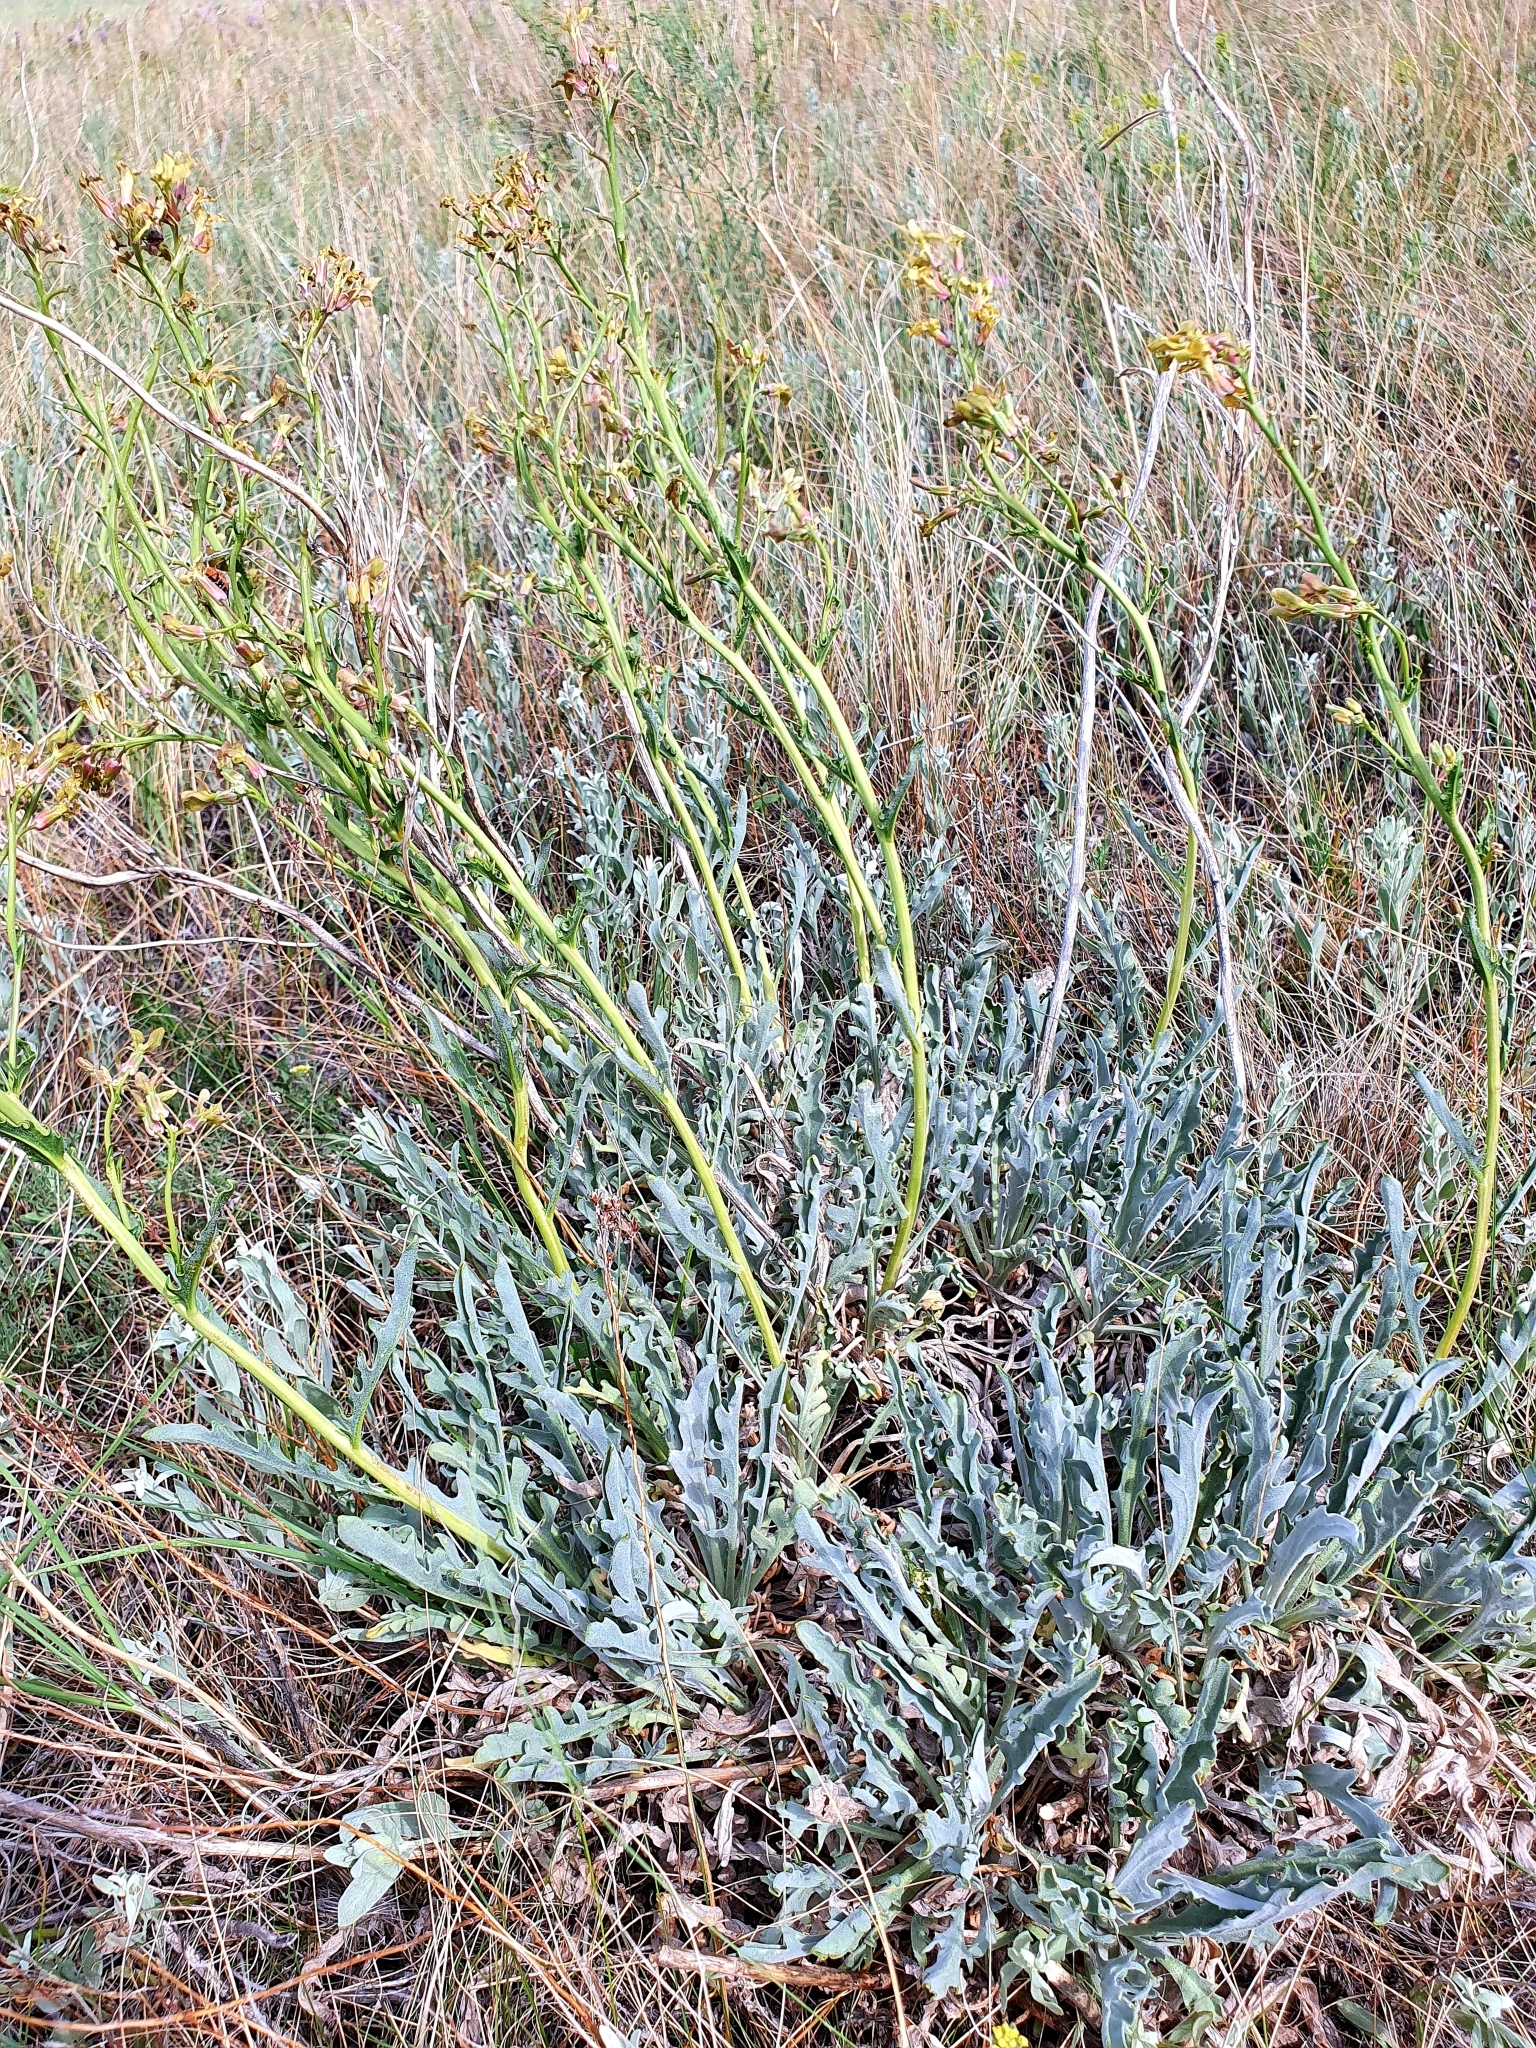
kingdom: Plantae
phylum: Tracheophyta
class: Magnoliopsida
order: Brassicales
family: Brassicaceae
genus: Matthiola
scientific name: Matthiola fragrans
